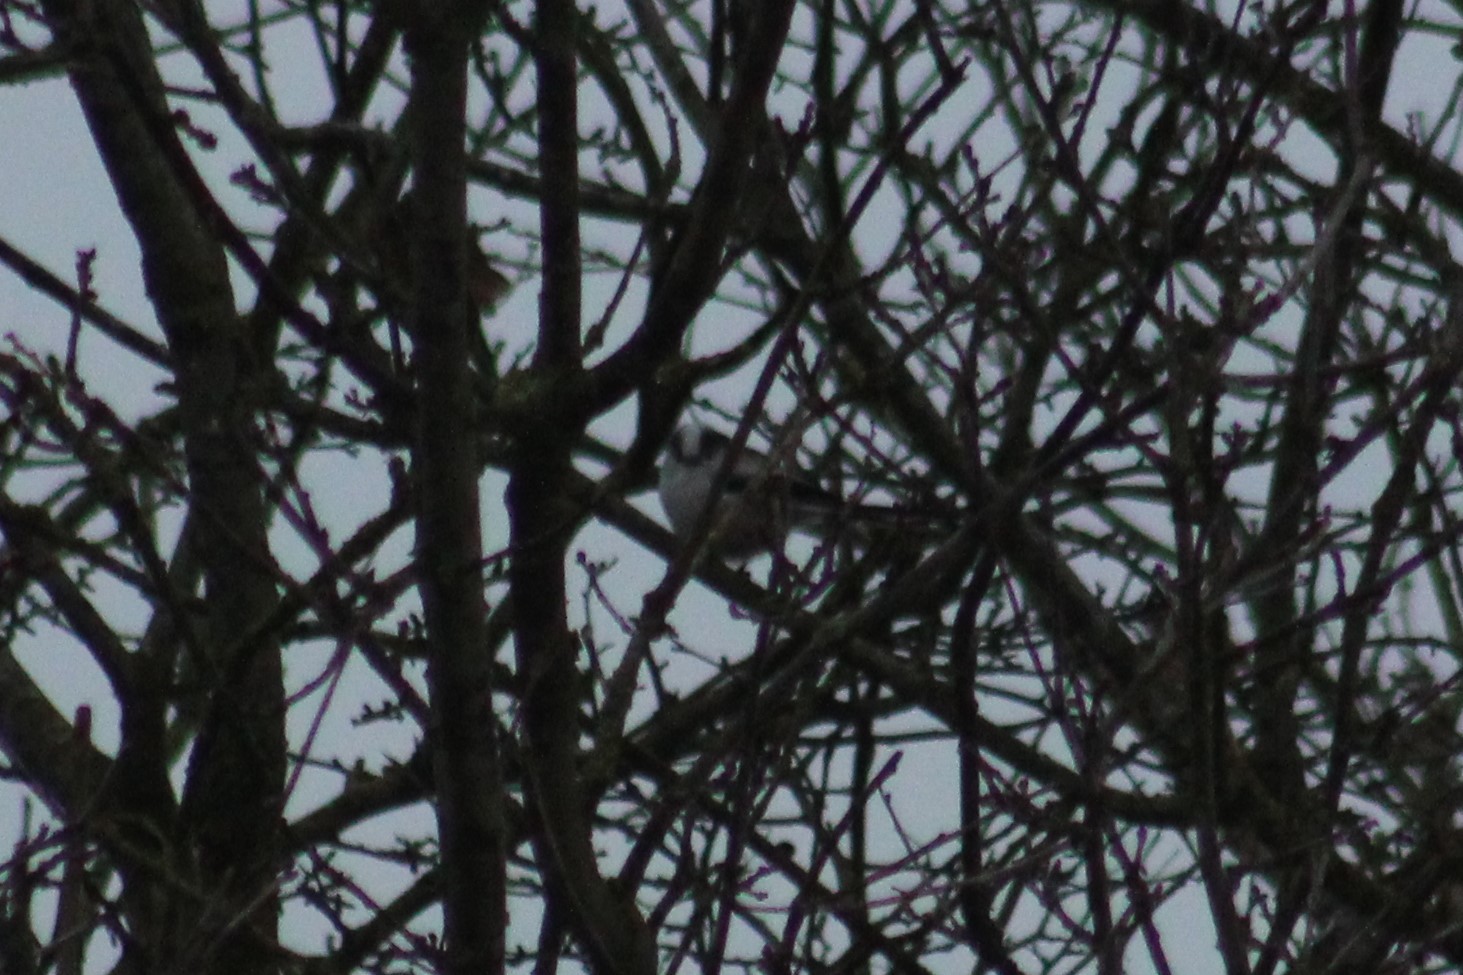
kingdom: Animalia
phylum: Chordata
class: Aves
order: Passeriformes
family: Aegithalidae
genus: Aegithalos
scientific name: Aegithalos caudatus
